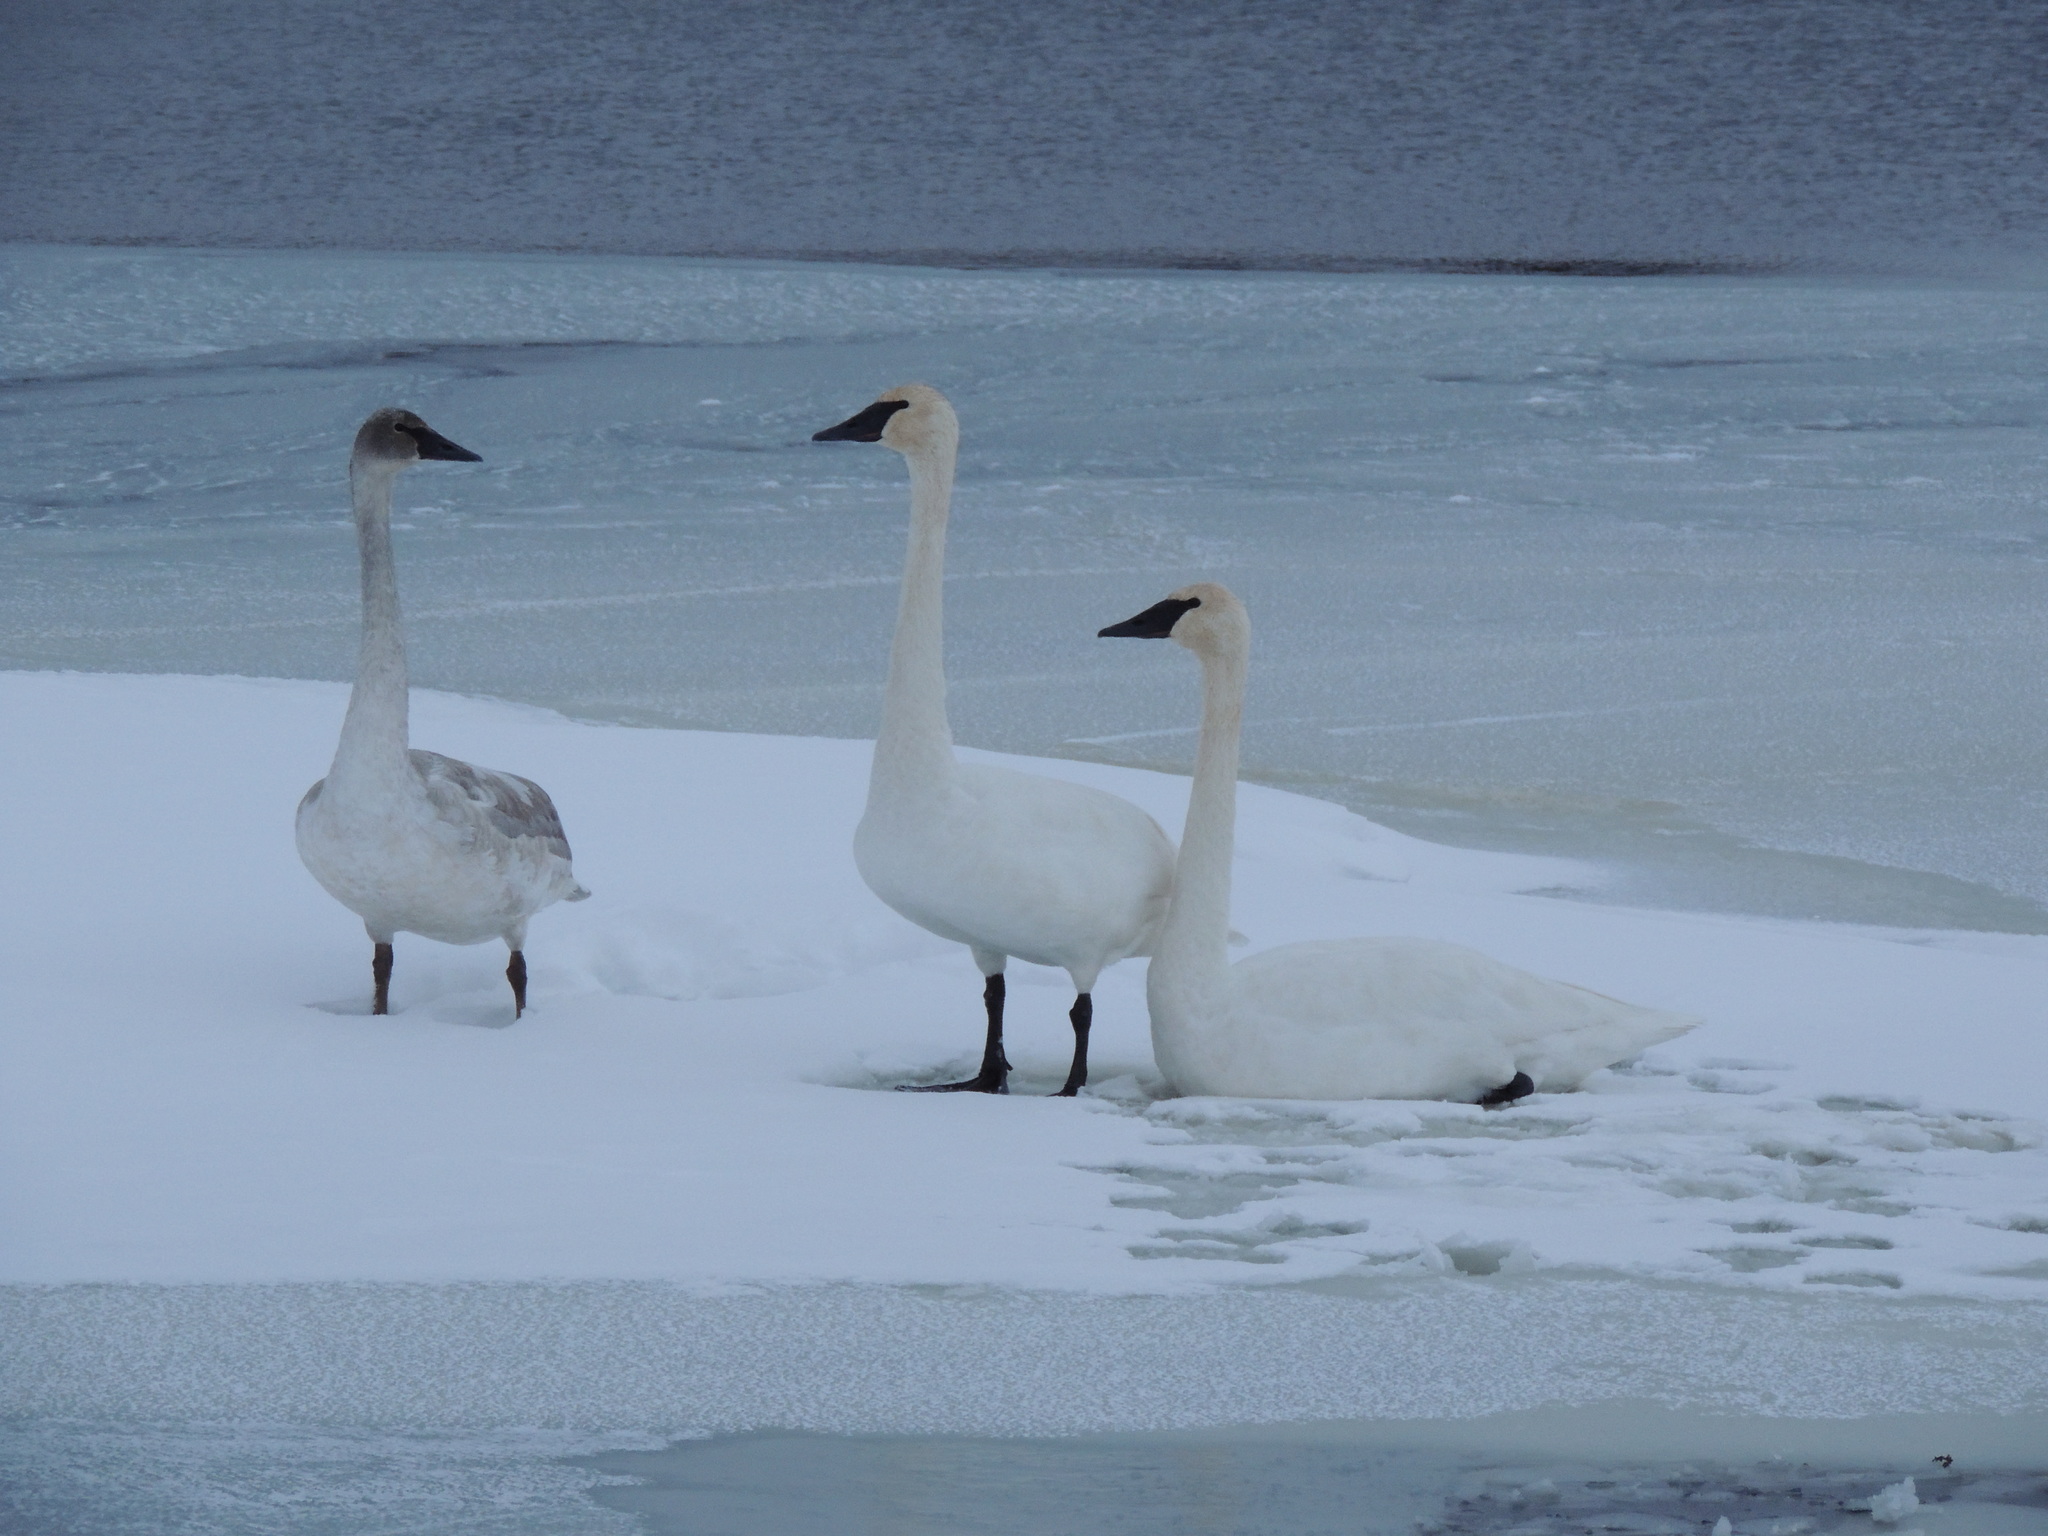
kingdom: Animalia
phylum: Chordata
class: Aves
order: Anseriformes
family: Anatidae
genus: Cygnus
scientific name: Cygnus buccinator
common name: Trumpeter swan
